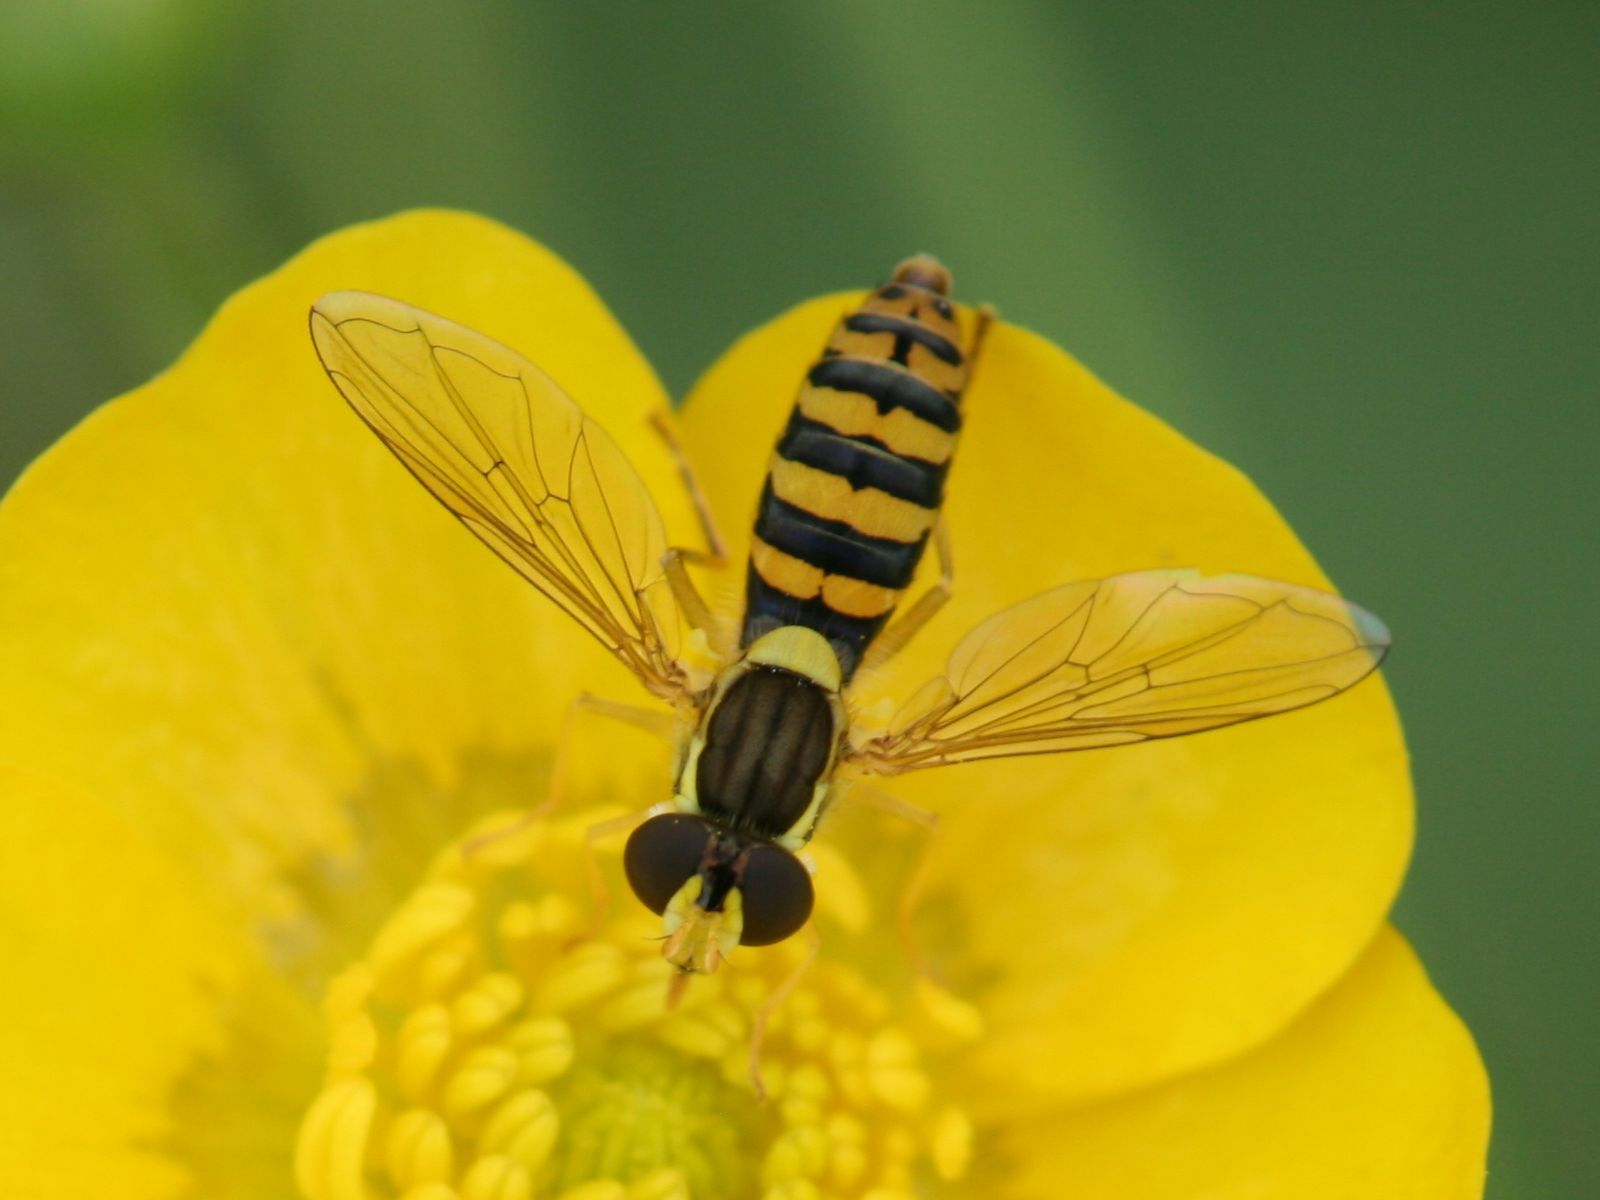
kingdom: Animalia
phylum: Arthropoda
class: Insecta
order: Diptera
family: Syrphidae
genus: Sphaerophoria
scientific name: Sphaerophoria
